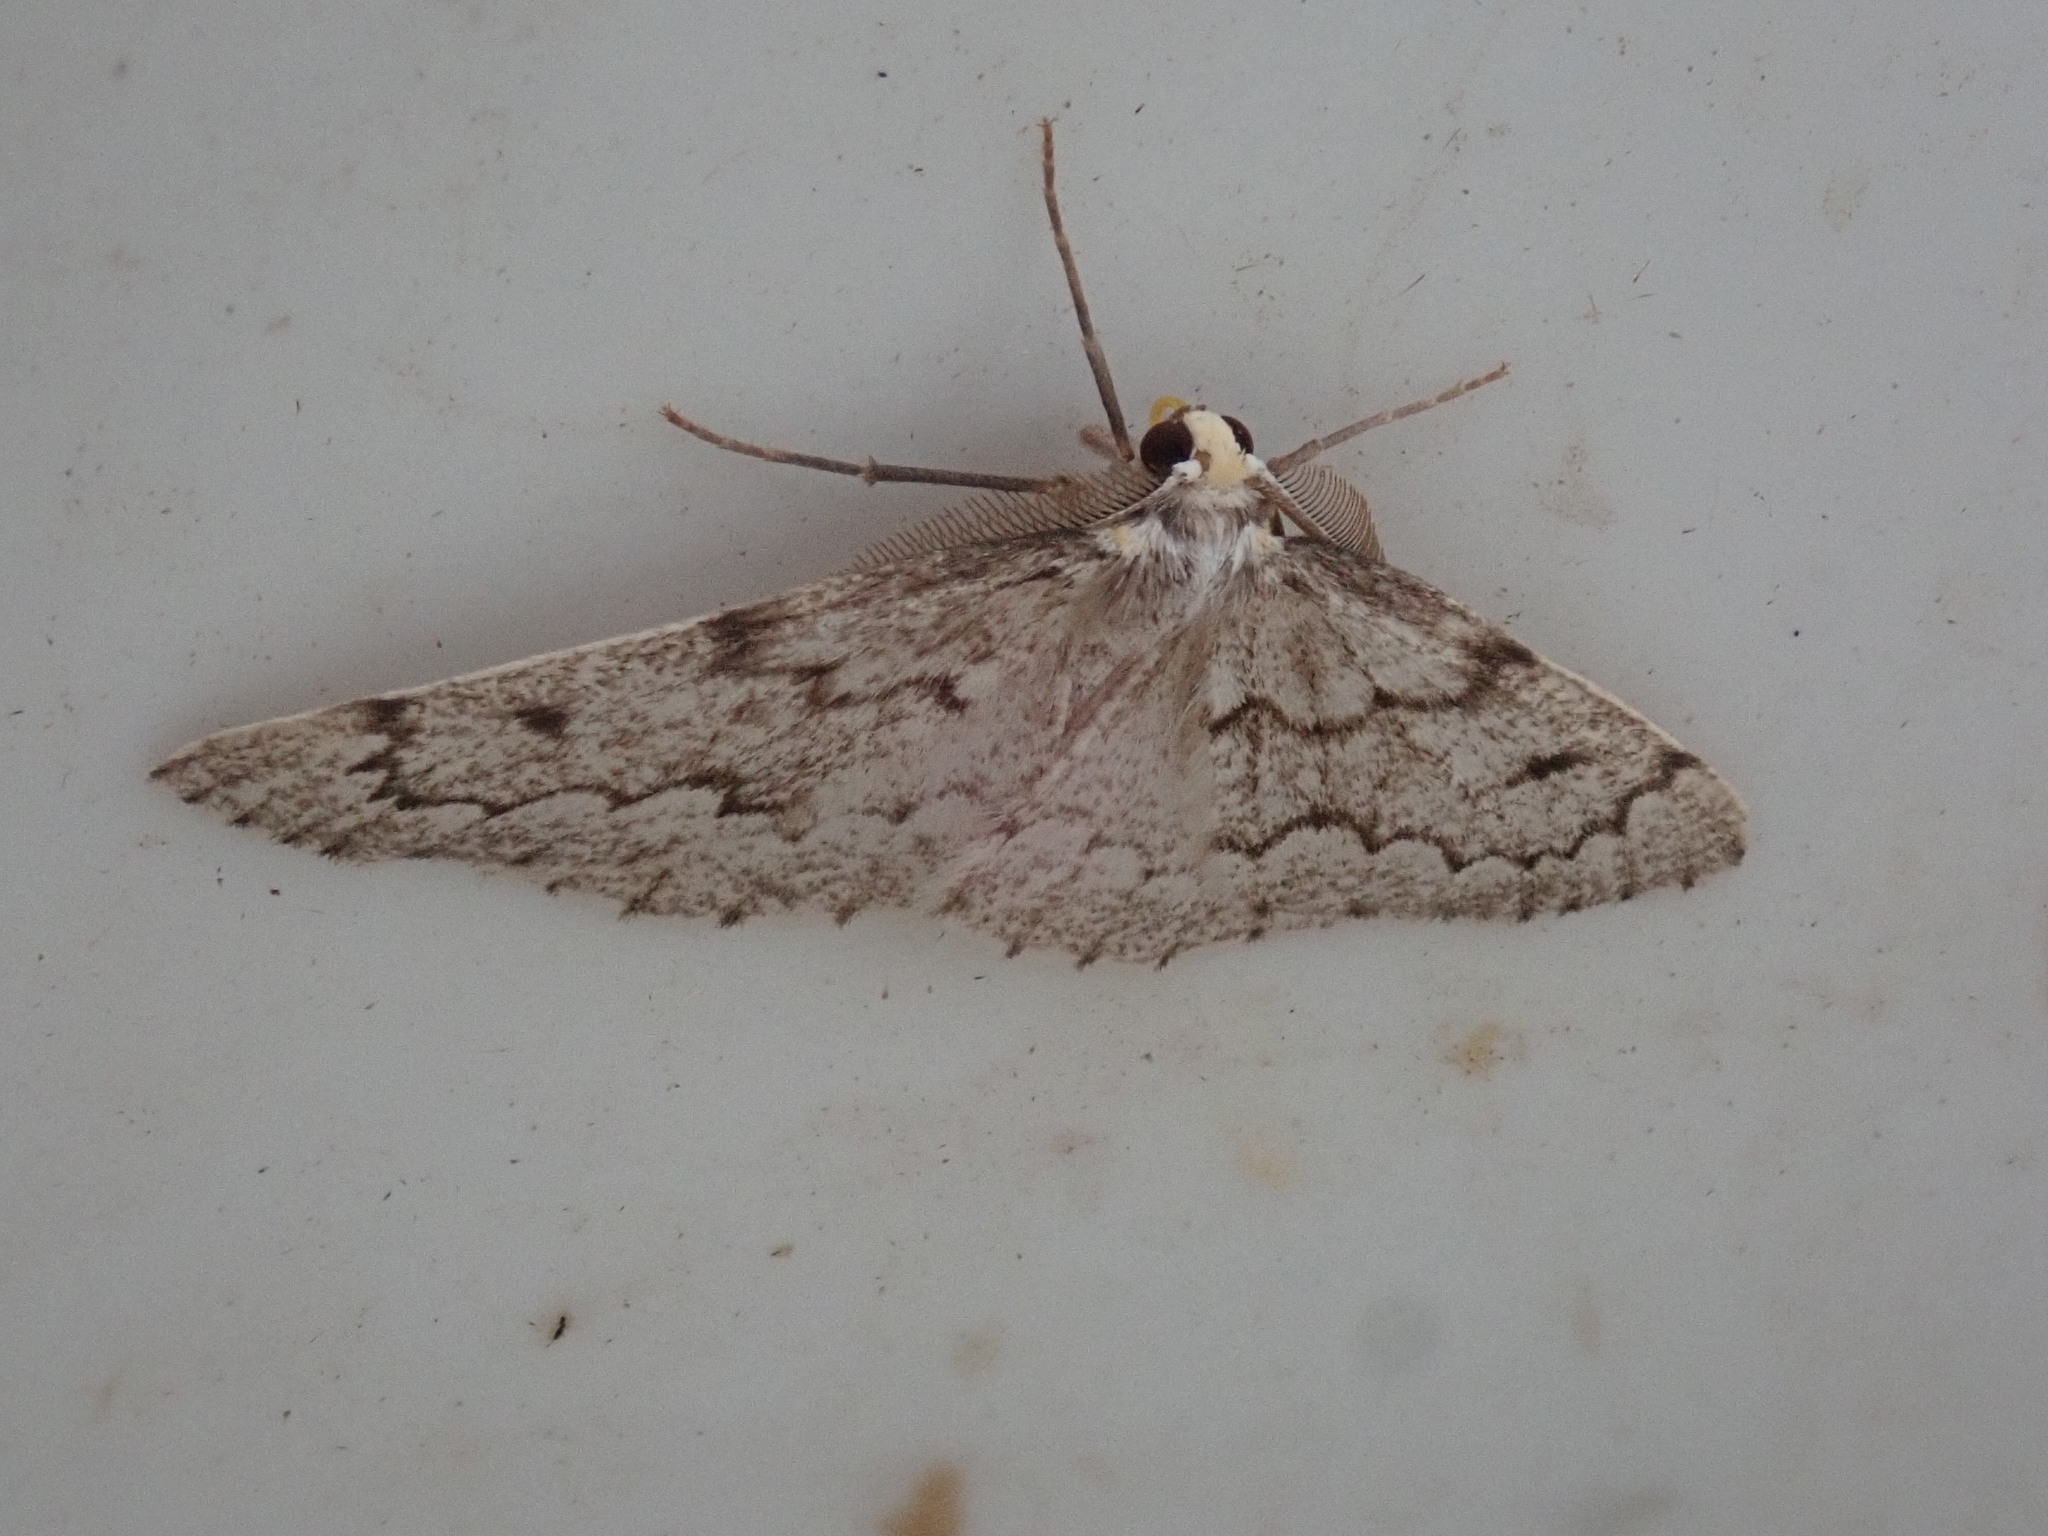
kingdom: Animalia
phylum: Arthropoda
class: Insecta
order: Lepidoptera
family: Geometridae
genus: Nepytia
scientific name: Nepytia canosaria
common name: False hemlock looper
